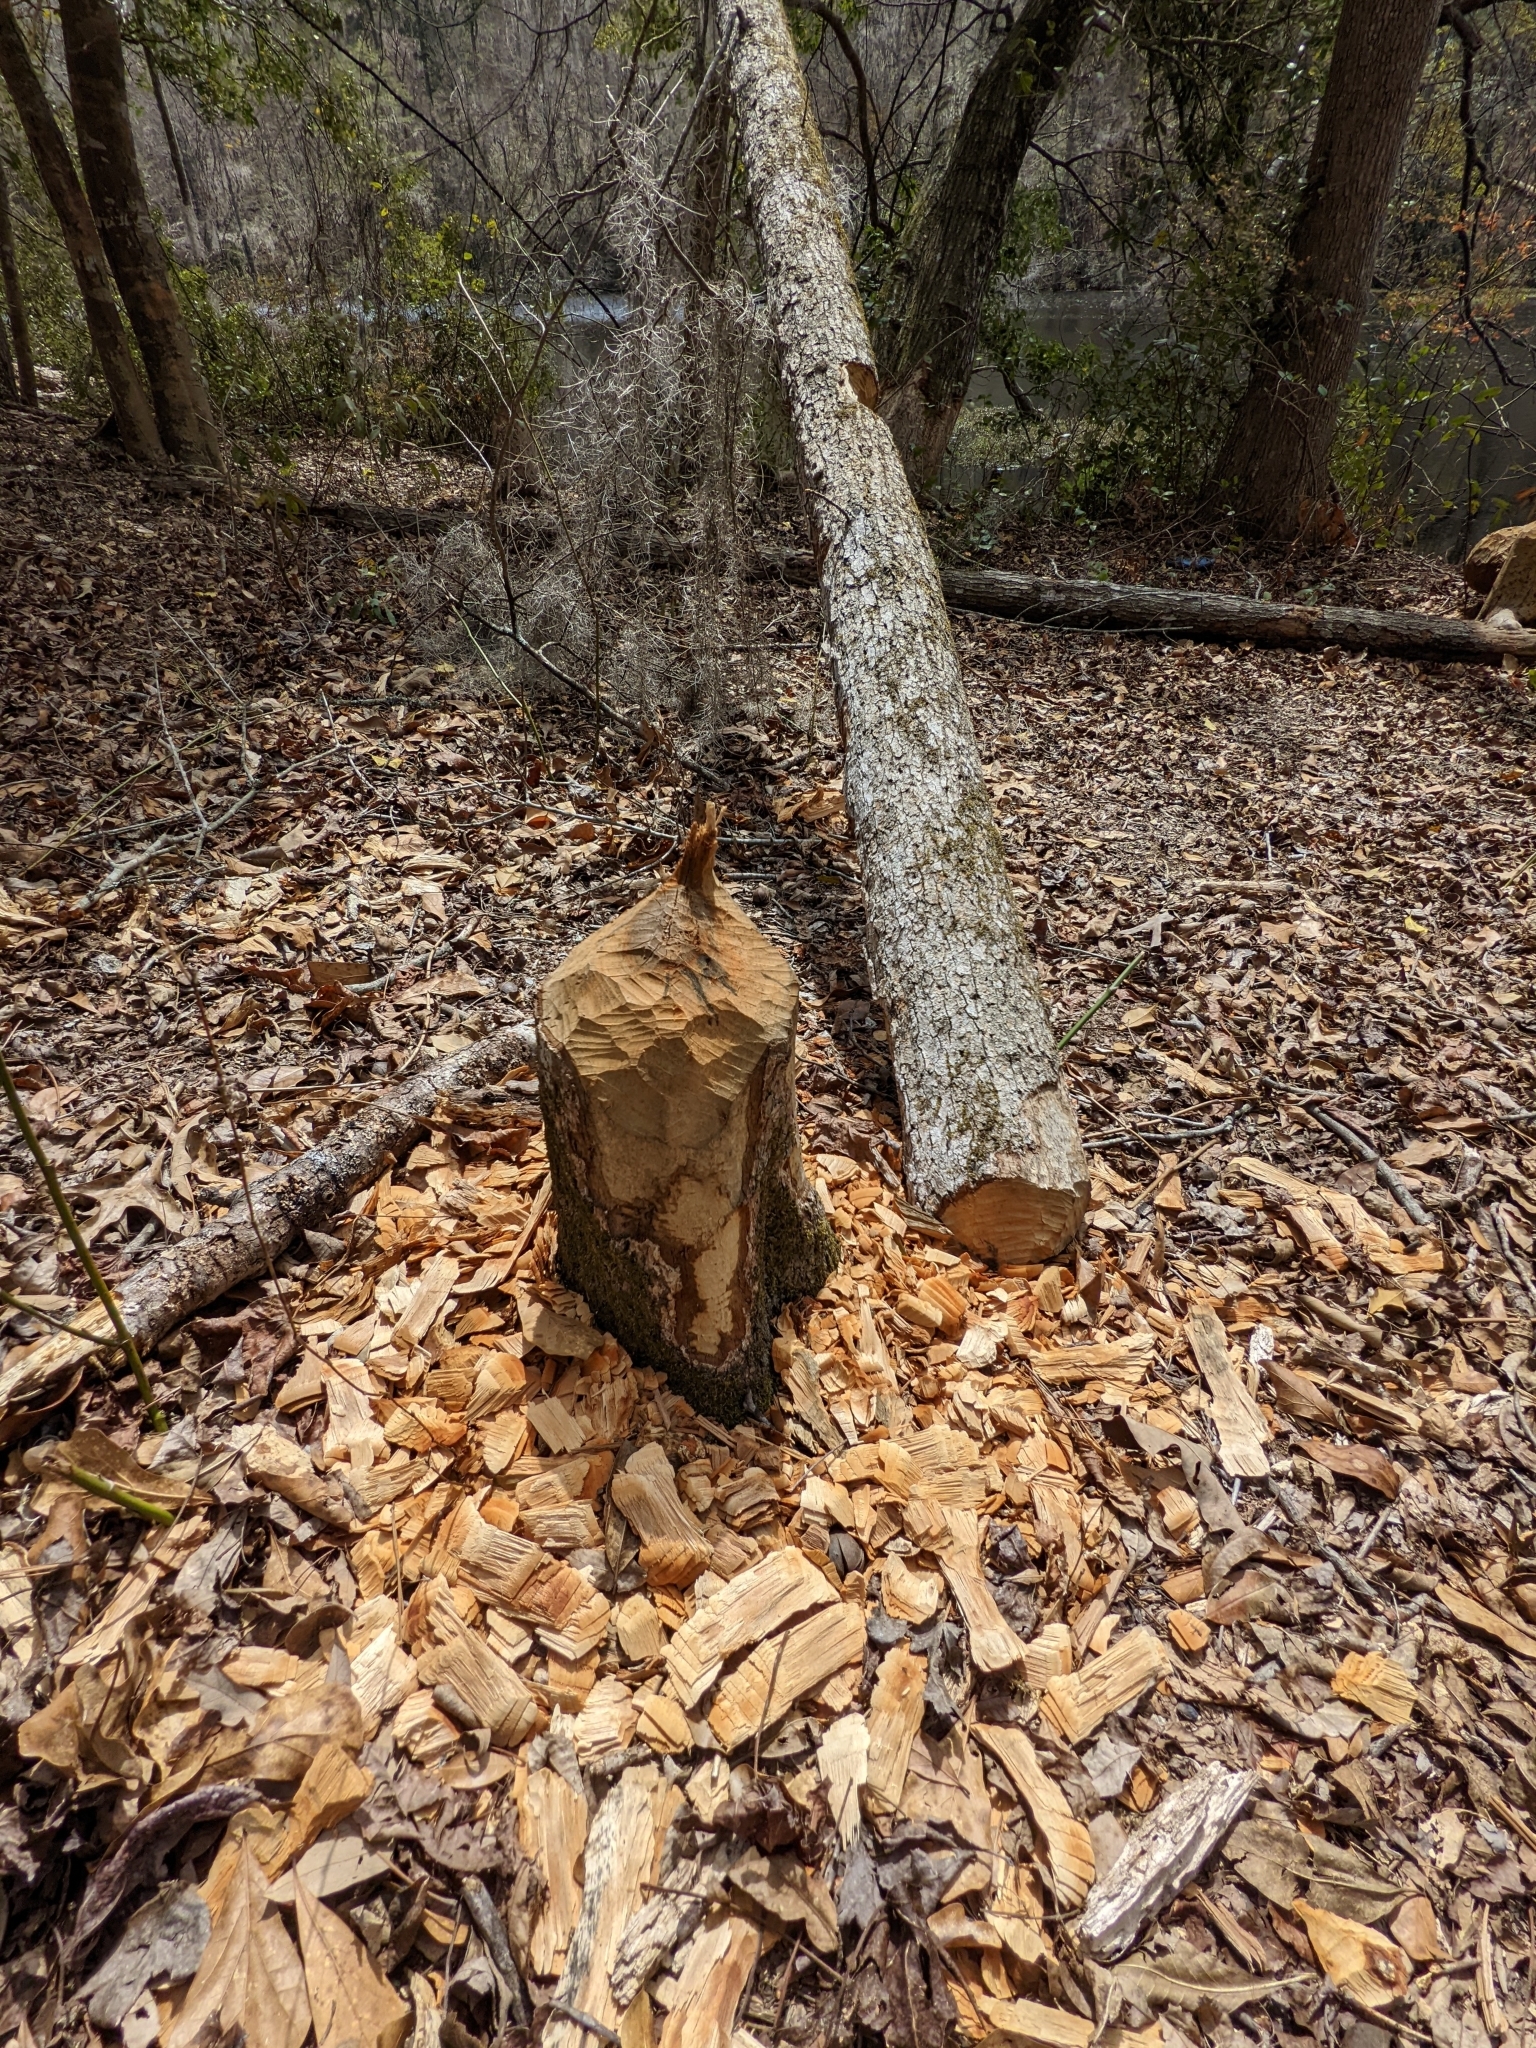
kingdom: Animalia
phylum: Chordata
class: Mammalia
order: Rodentia
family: Castoridae
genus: Castor
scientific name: Castor canadensis
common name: American beaver
